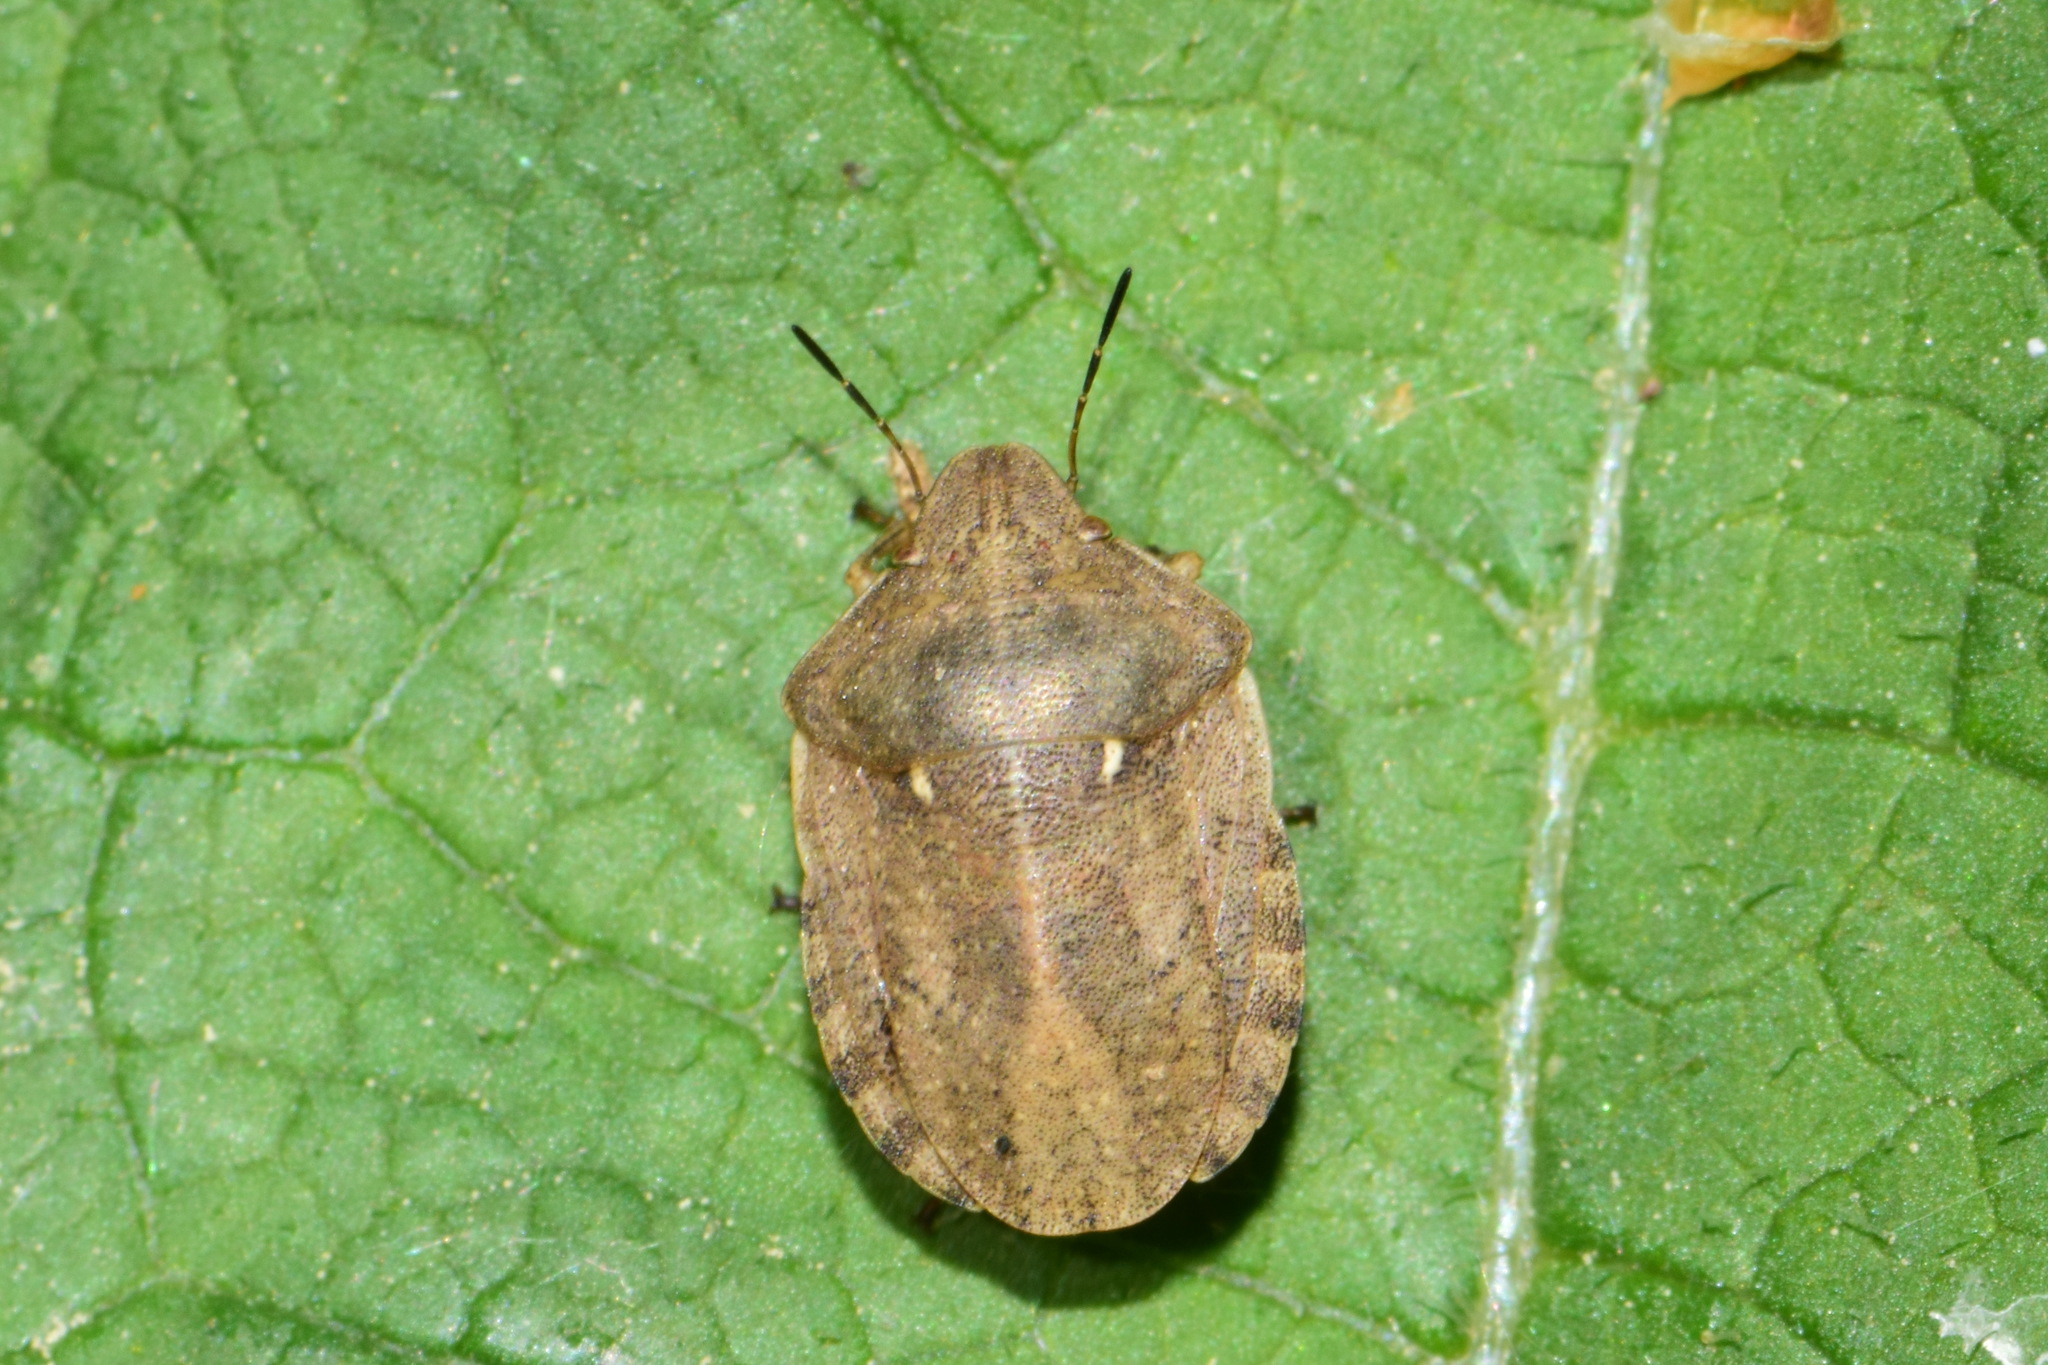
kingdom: Animalia
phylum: Arthropoda
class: Insecta
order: Hemiptera
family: Scutelleridae
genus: Eurygaster
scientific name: Eurygaster testudinaria
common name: Tortoise bug
